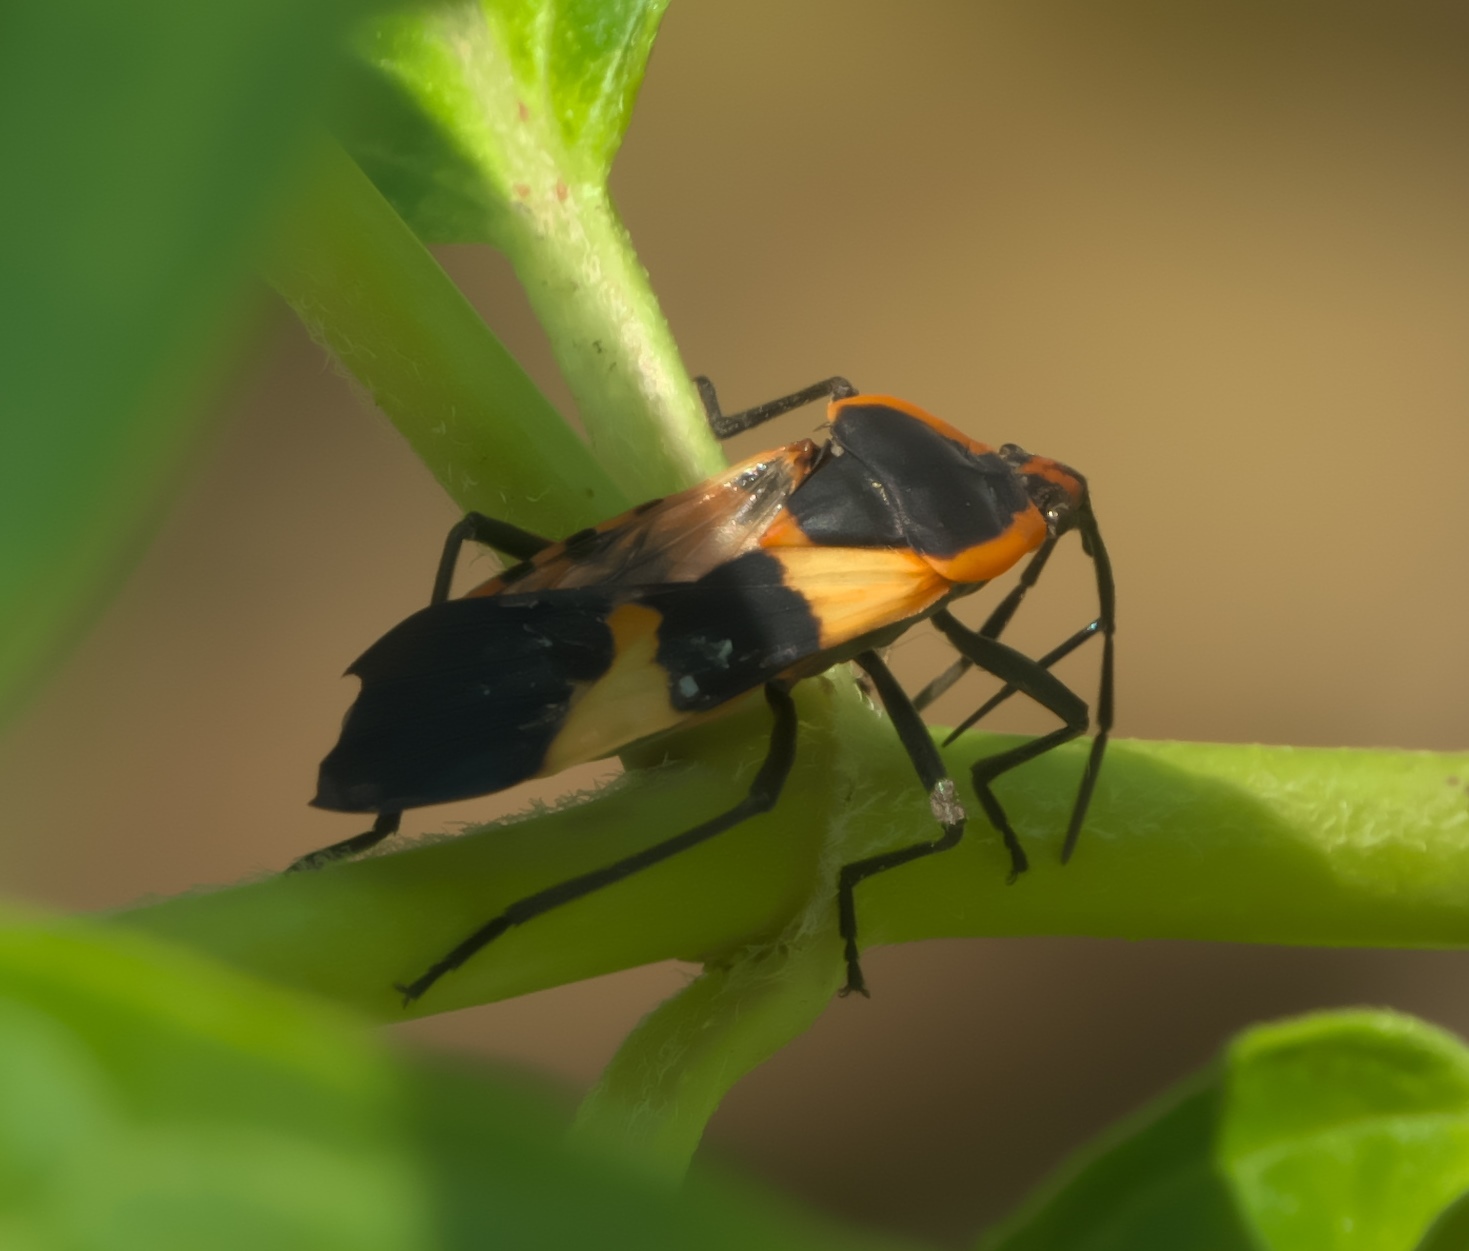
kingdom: Animalia
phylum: Arthropoda
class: Insecta
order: Hemiptera
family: Lygaeidae
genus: Oncopeltus
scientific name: Oncopeltus fasciatus
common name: Large milkweed bug
